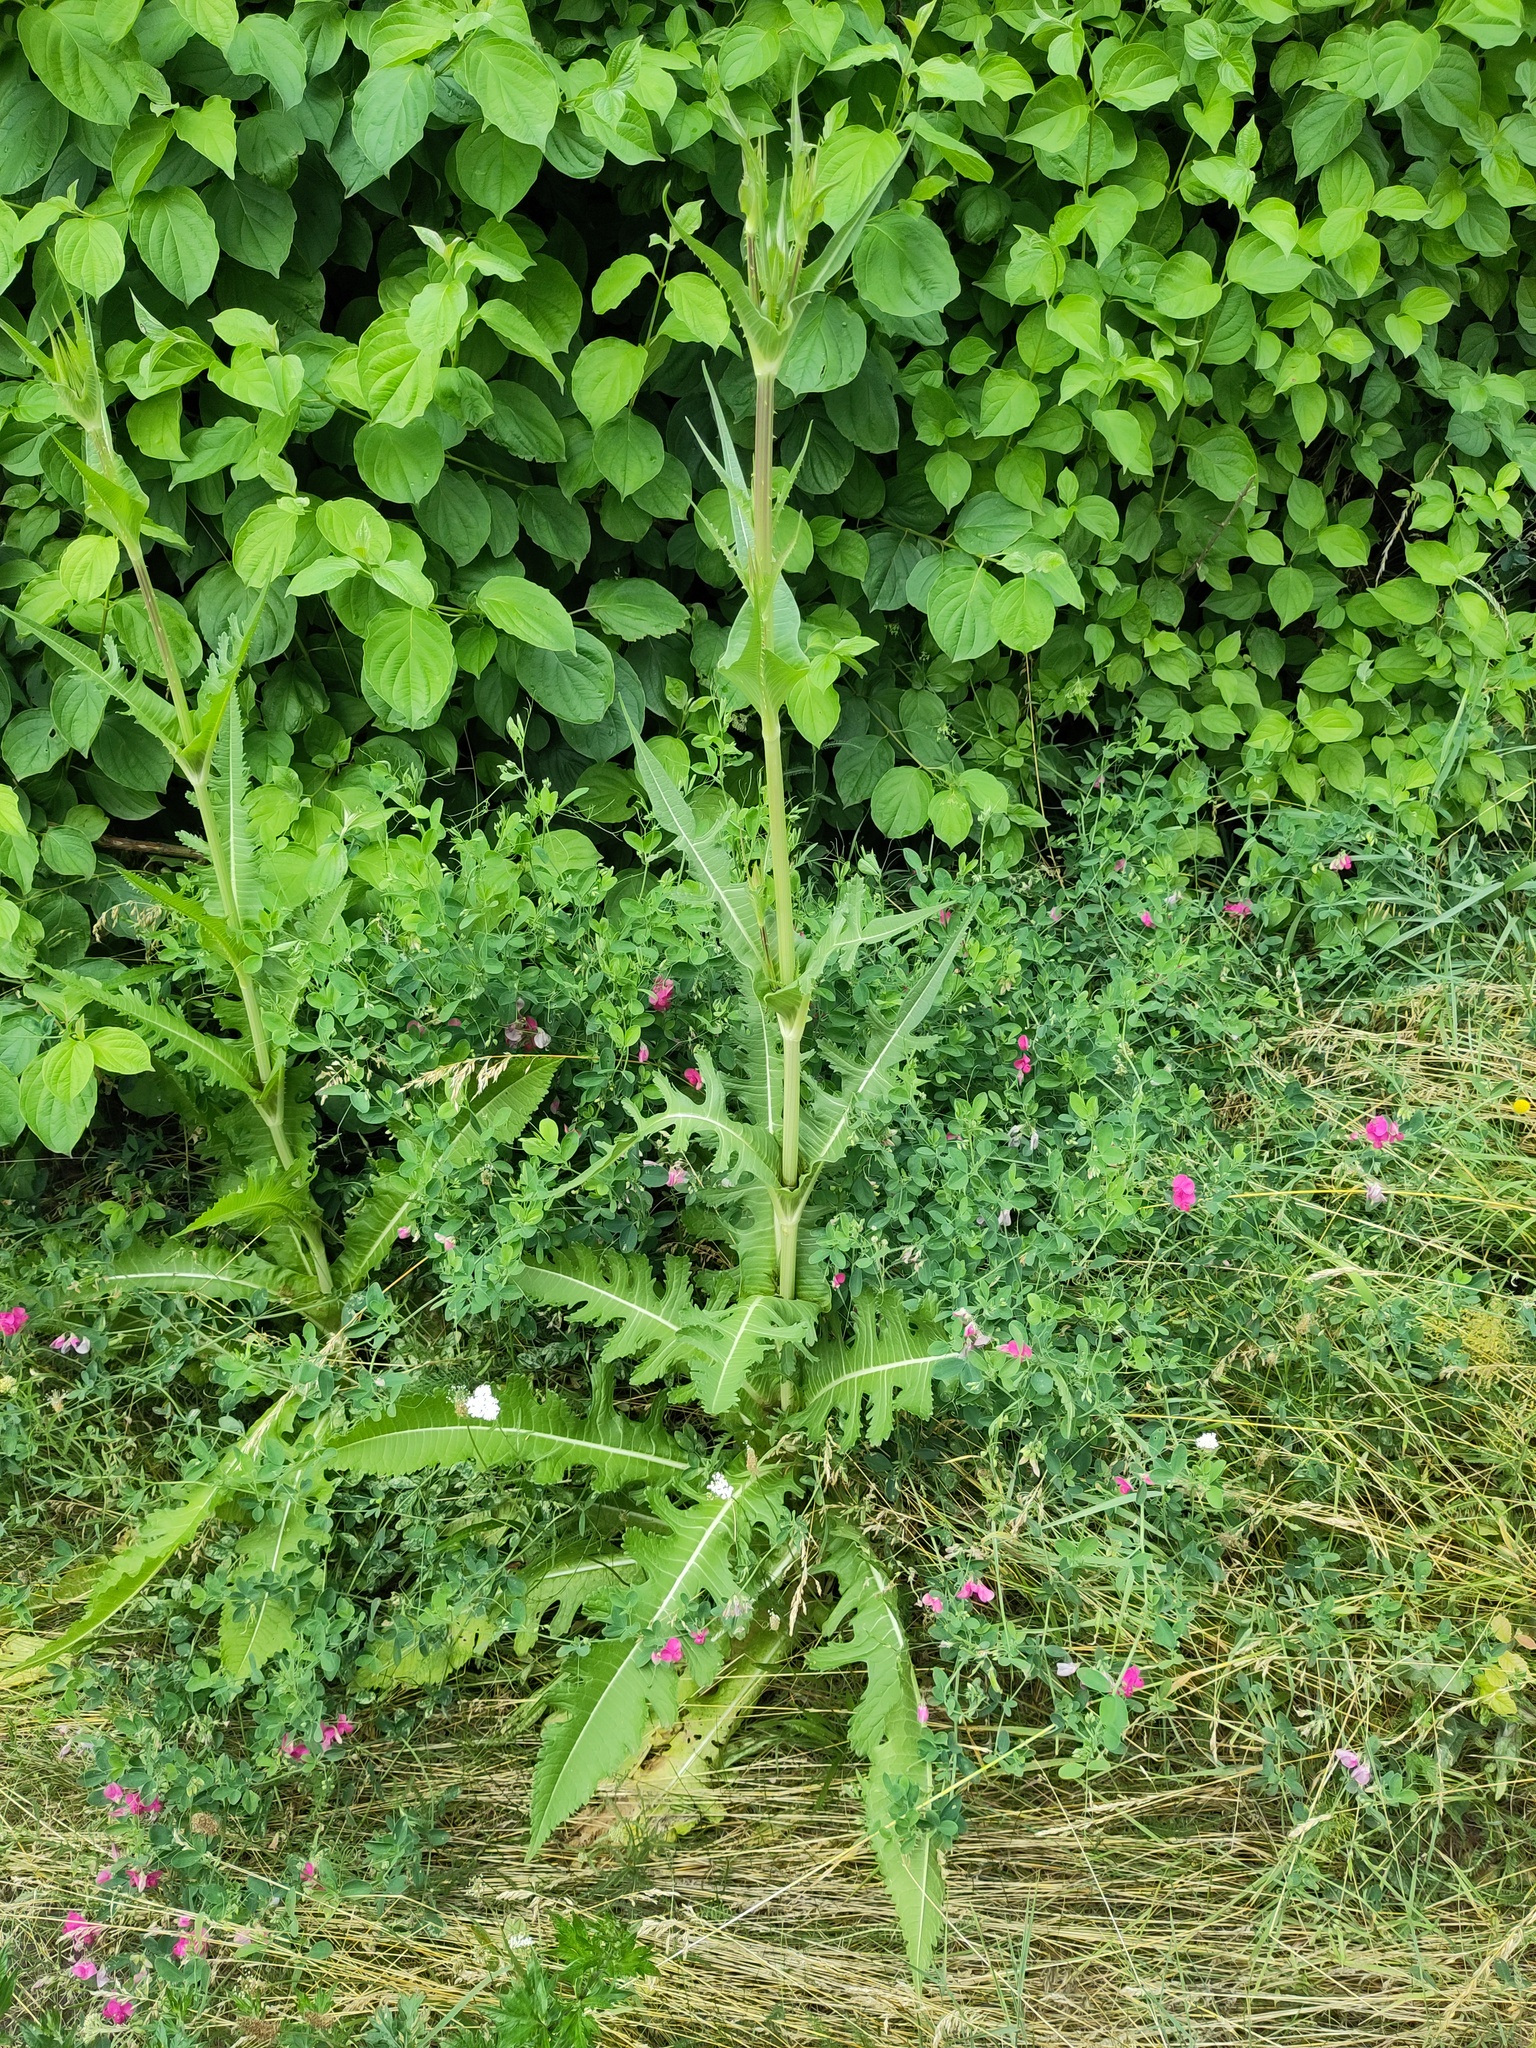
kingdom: Plantae
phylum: Tracheophyta
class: Magnoliopsida
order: Dipsacales
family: Caprifoliaceae
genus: Dipsacus
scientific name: Dipsacus laciniatus
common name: Cut-leaved teasel
